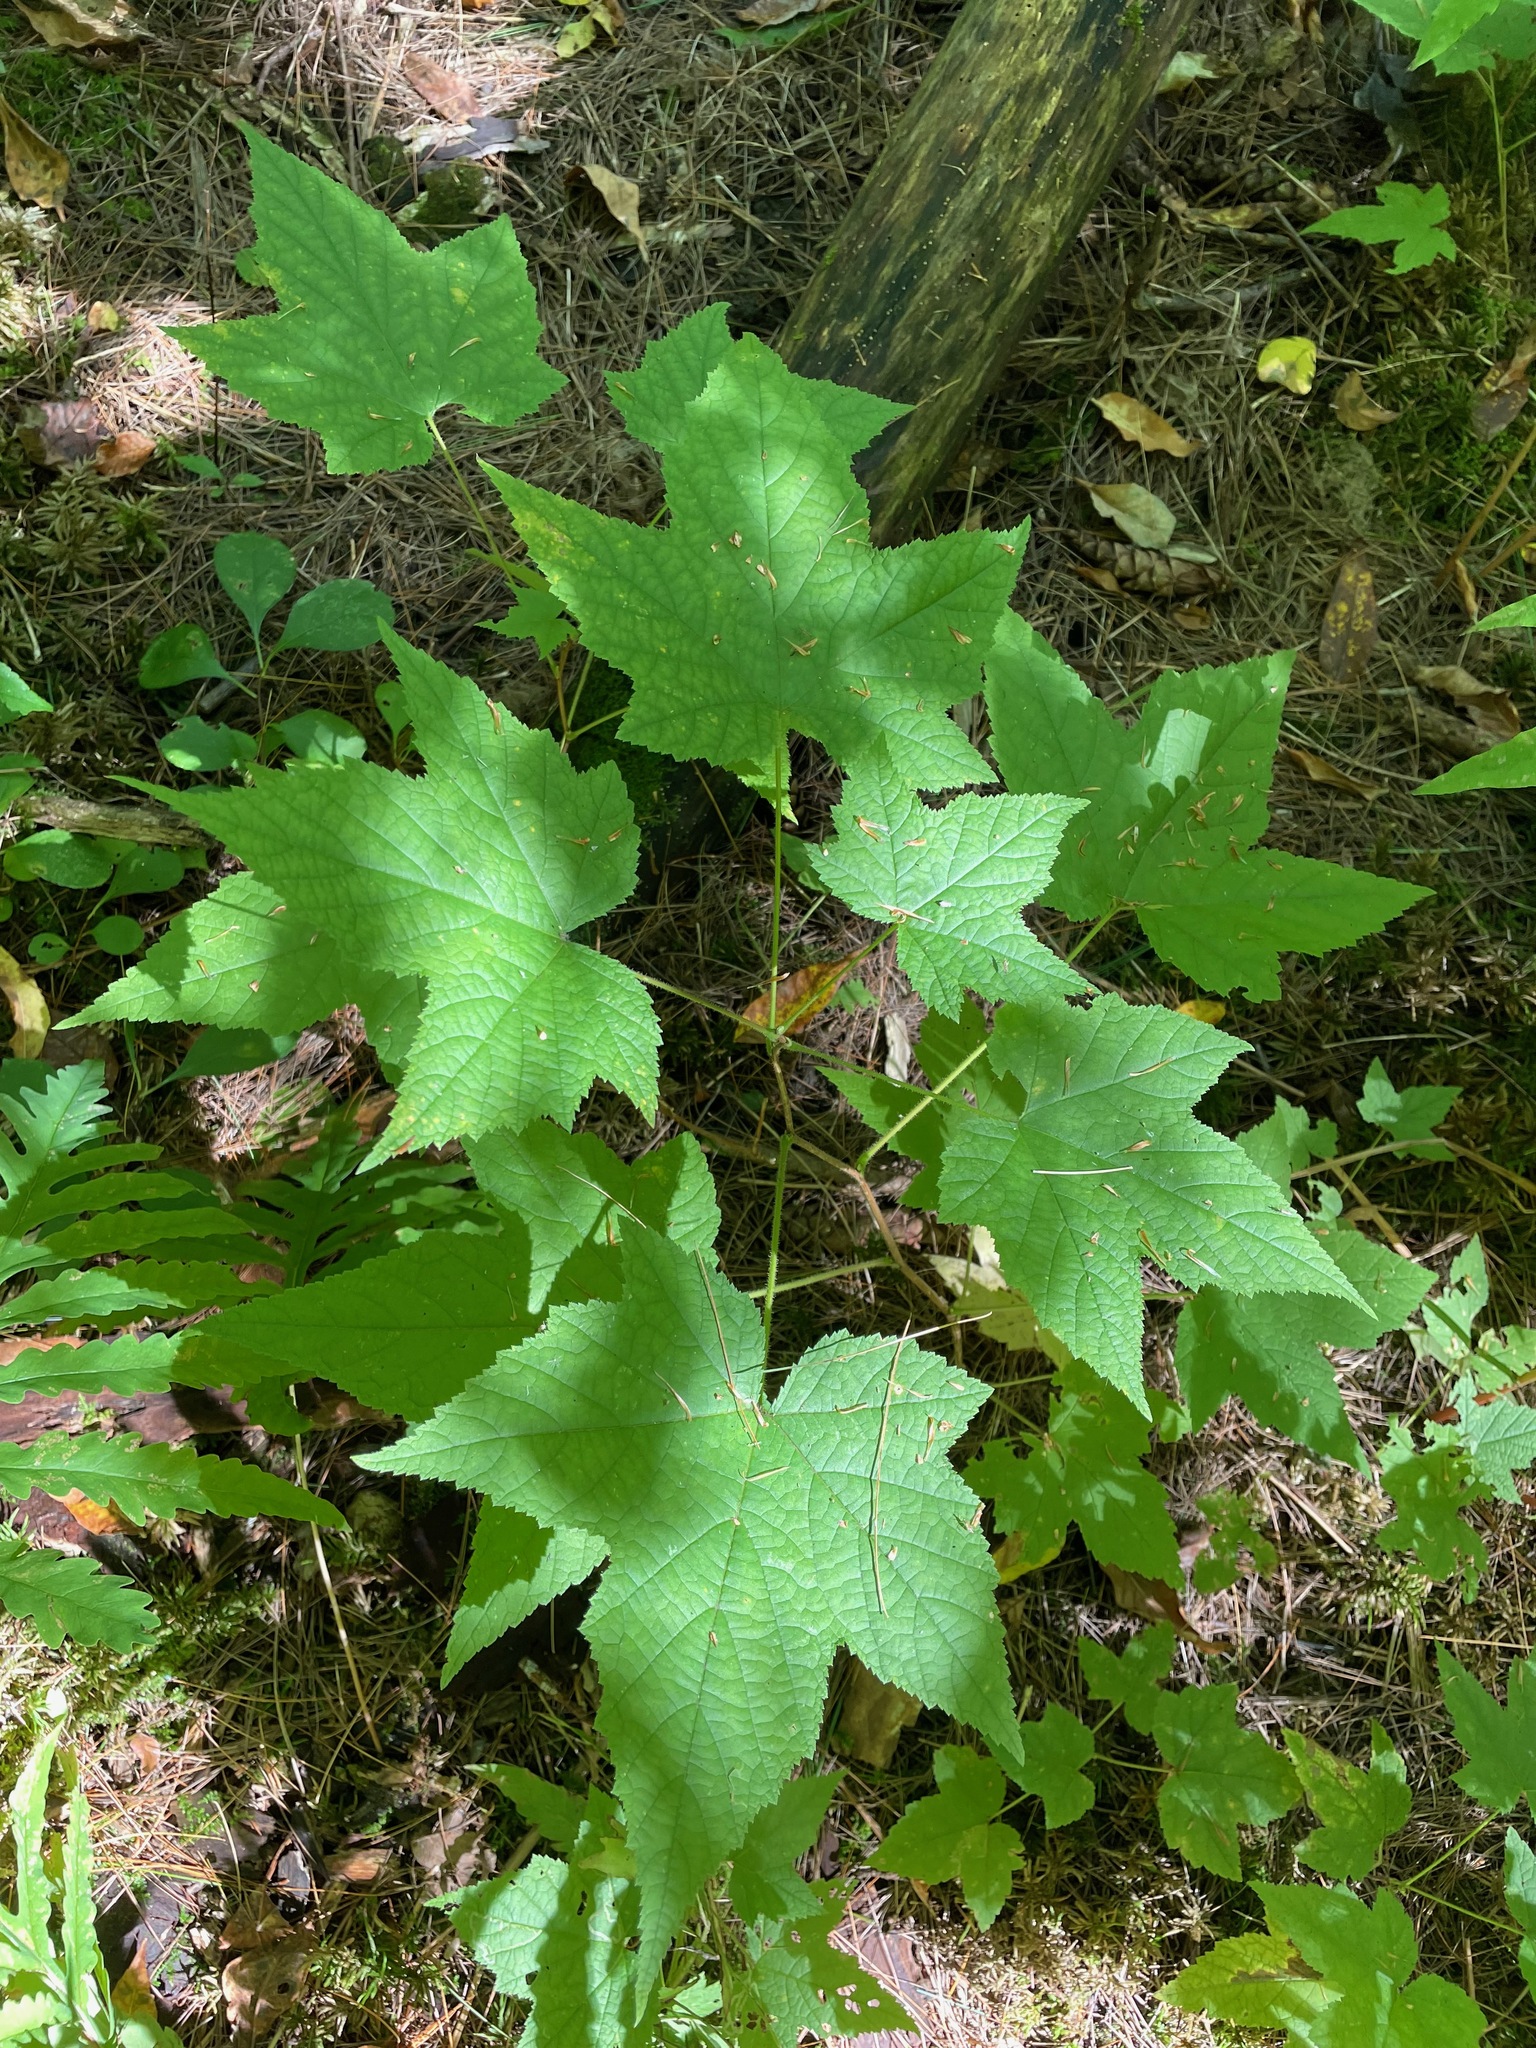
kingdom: Plantae
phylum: Tracheophyta
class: Magnoliopsida
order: Rosales
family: Rosaceae
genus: Rubus
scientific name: Rubus odoratus
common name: Purple-flowered raspberry
